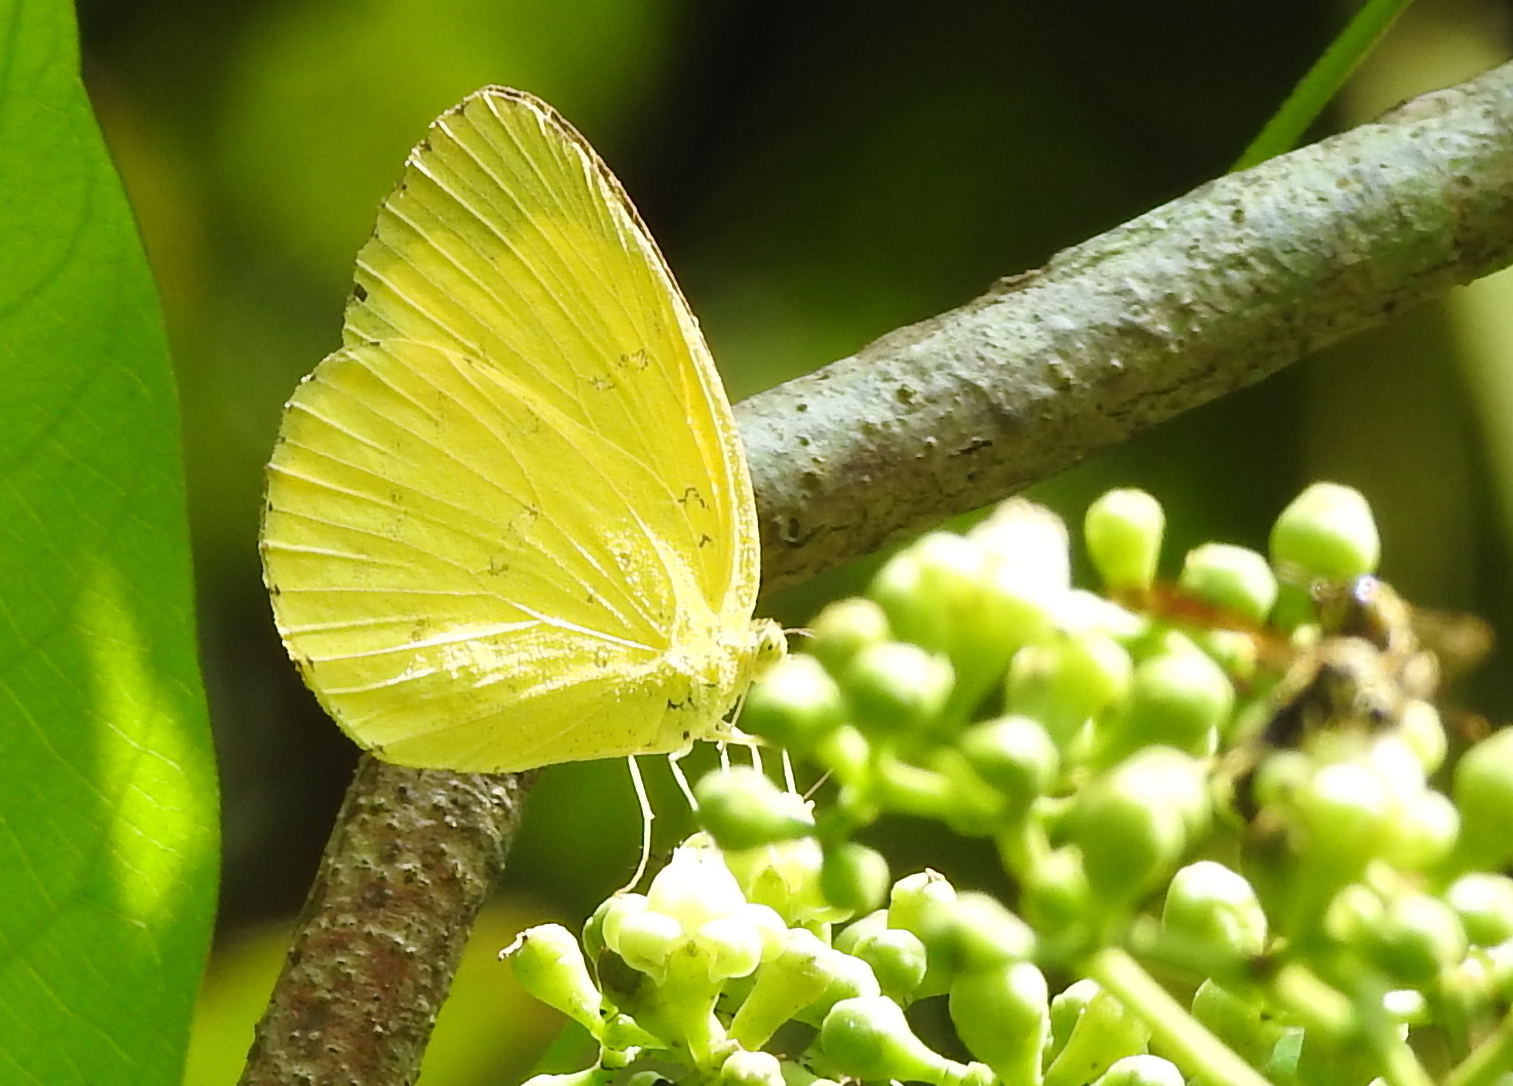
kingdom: Animalia
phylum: Arthropoda
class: Insecta
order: Lepidoptera
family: Pieridae
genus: Eurema
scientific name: Eurema hecabe
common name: Pale grass yellow
